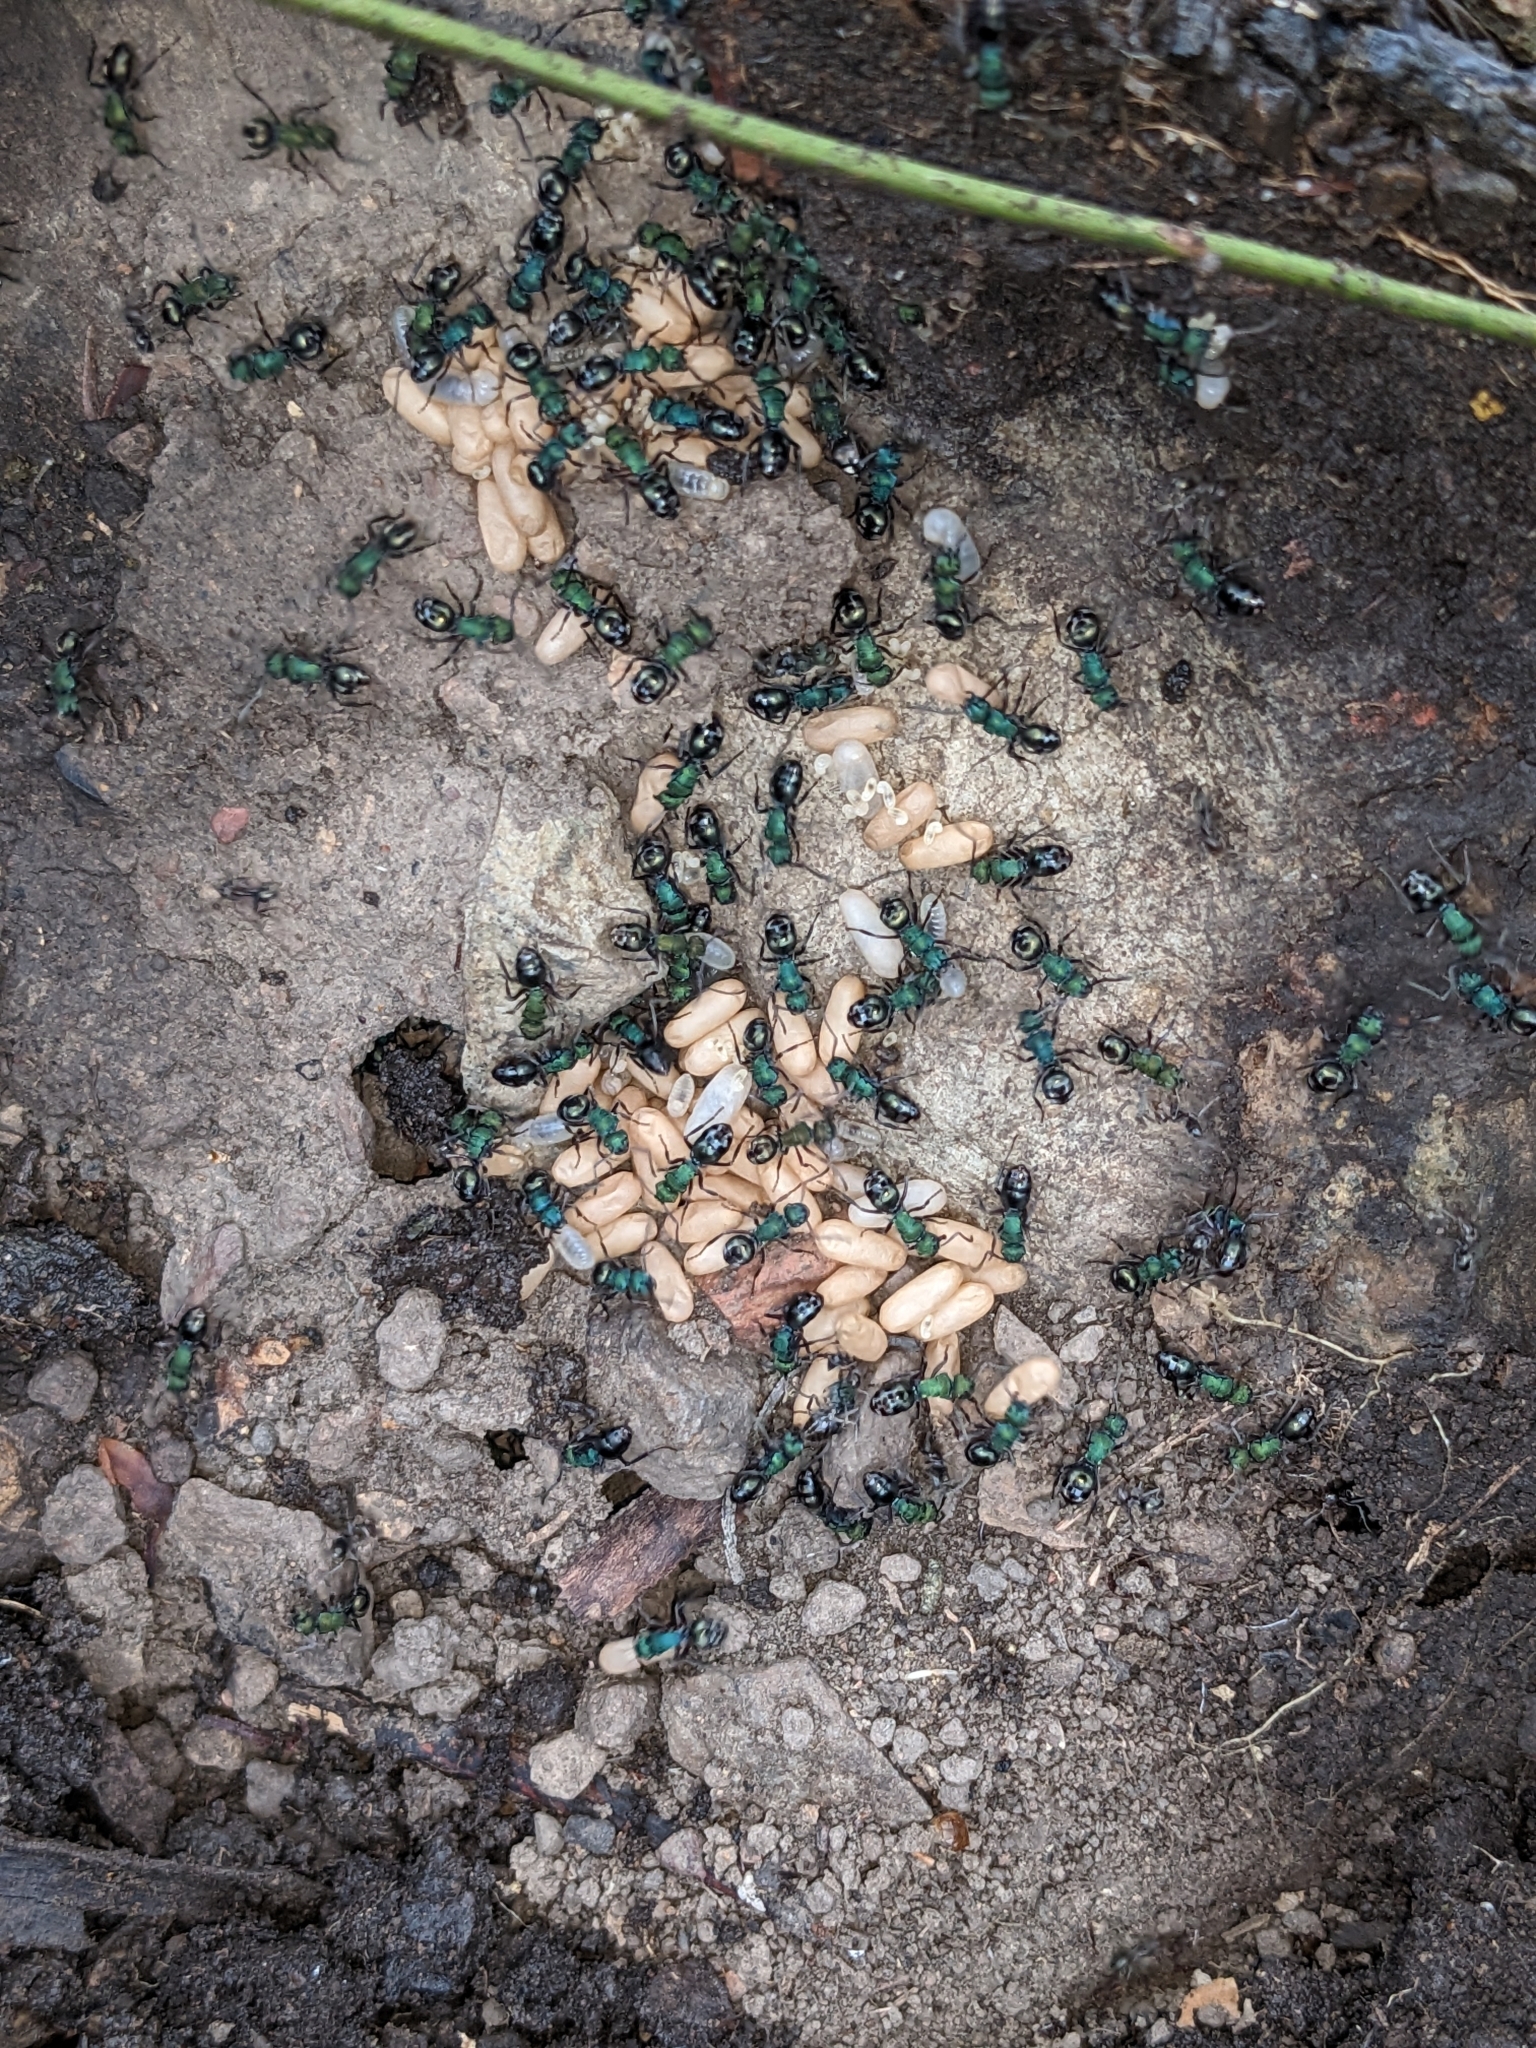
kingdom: Animalia
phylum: Arthropoda
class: Insecta
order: Hymenoptera
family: Formicidae
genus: Polyrhachis
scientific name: Polyrhachis hookeri
